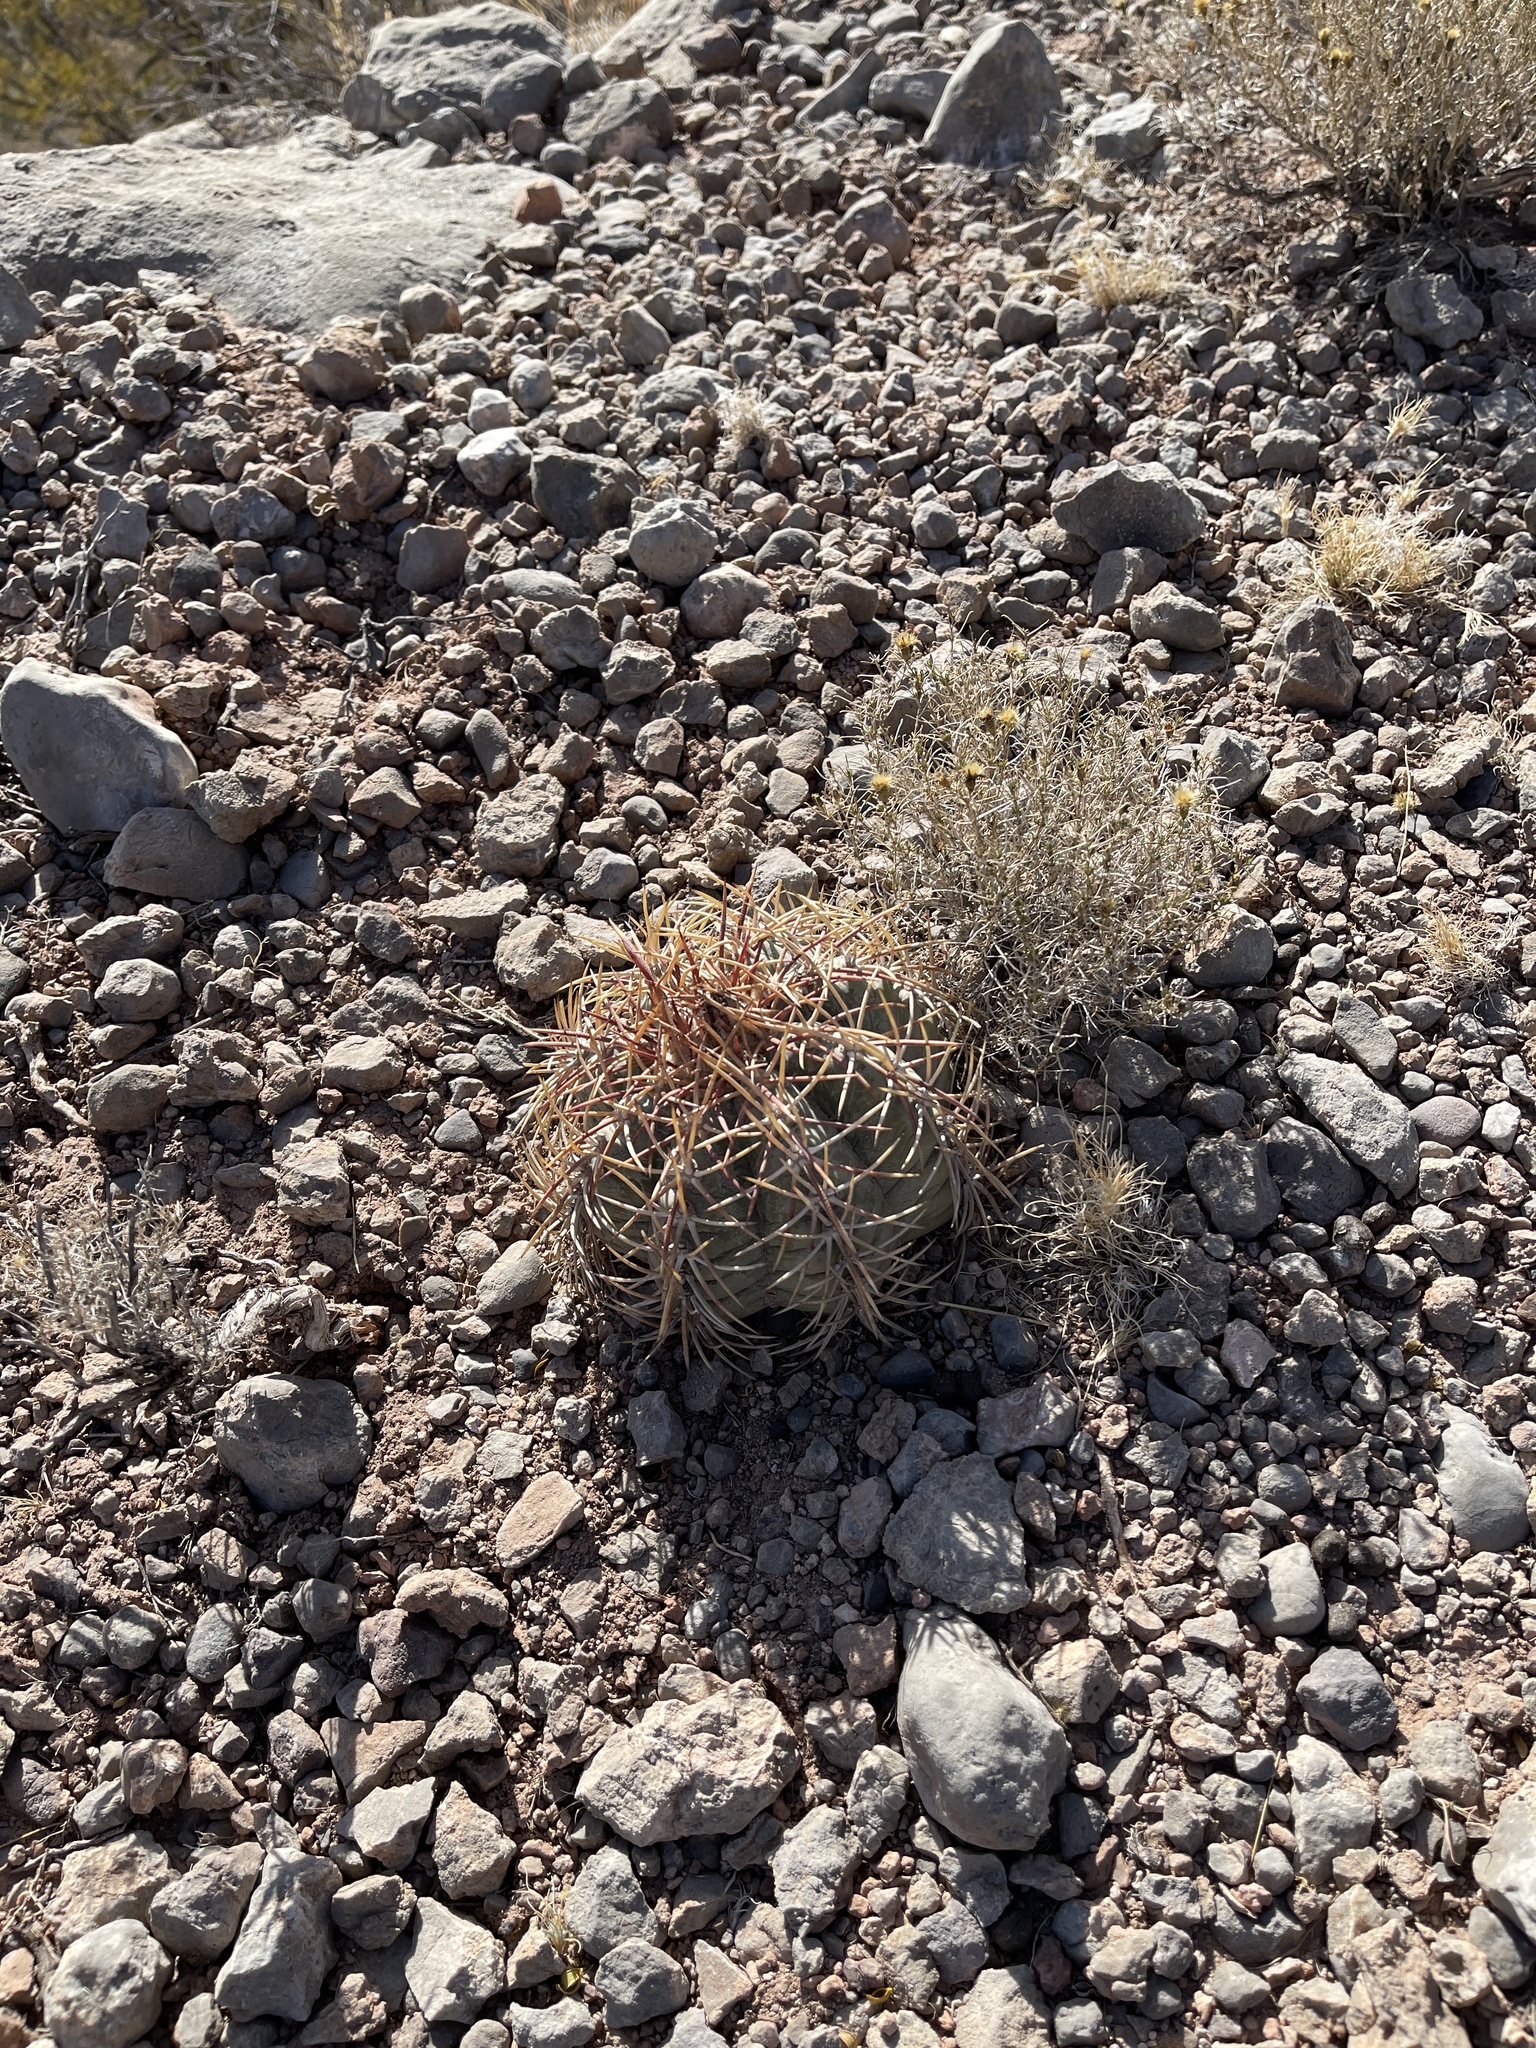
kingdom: Plantae
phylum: Tracheophyta
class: Magnoliopsida
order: Caryophyllales
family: Cactaceae
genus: Echinocactus
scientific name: Echinocactus horizonthalonius
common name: Devilshead
